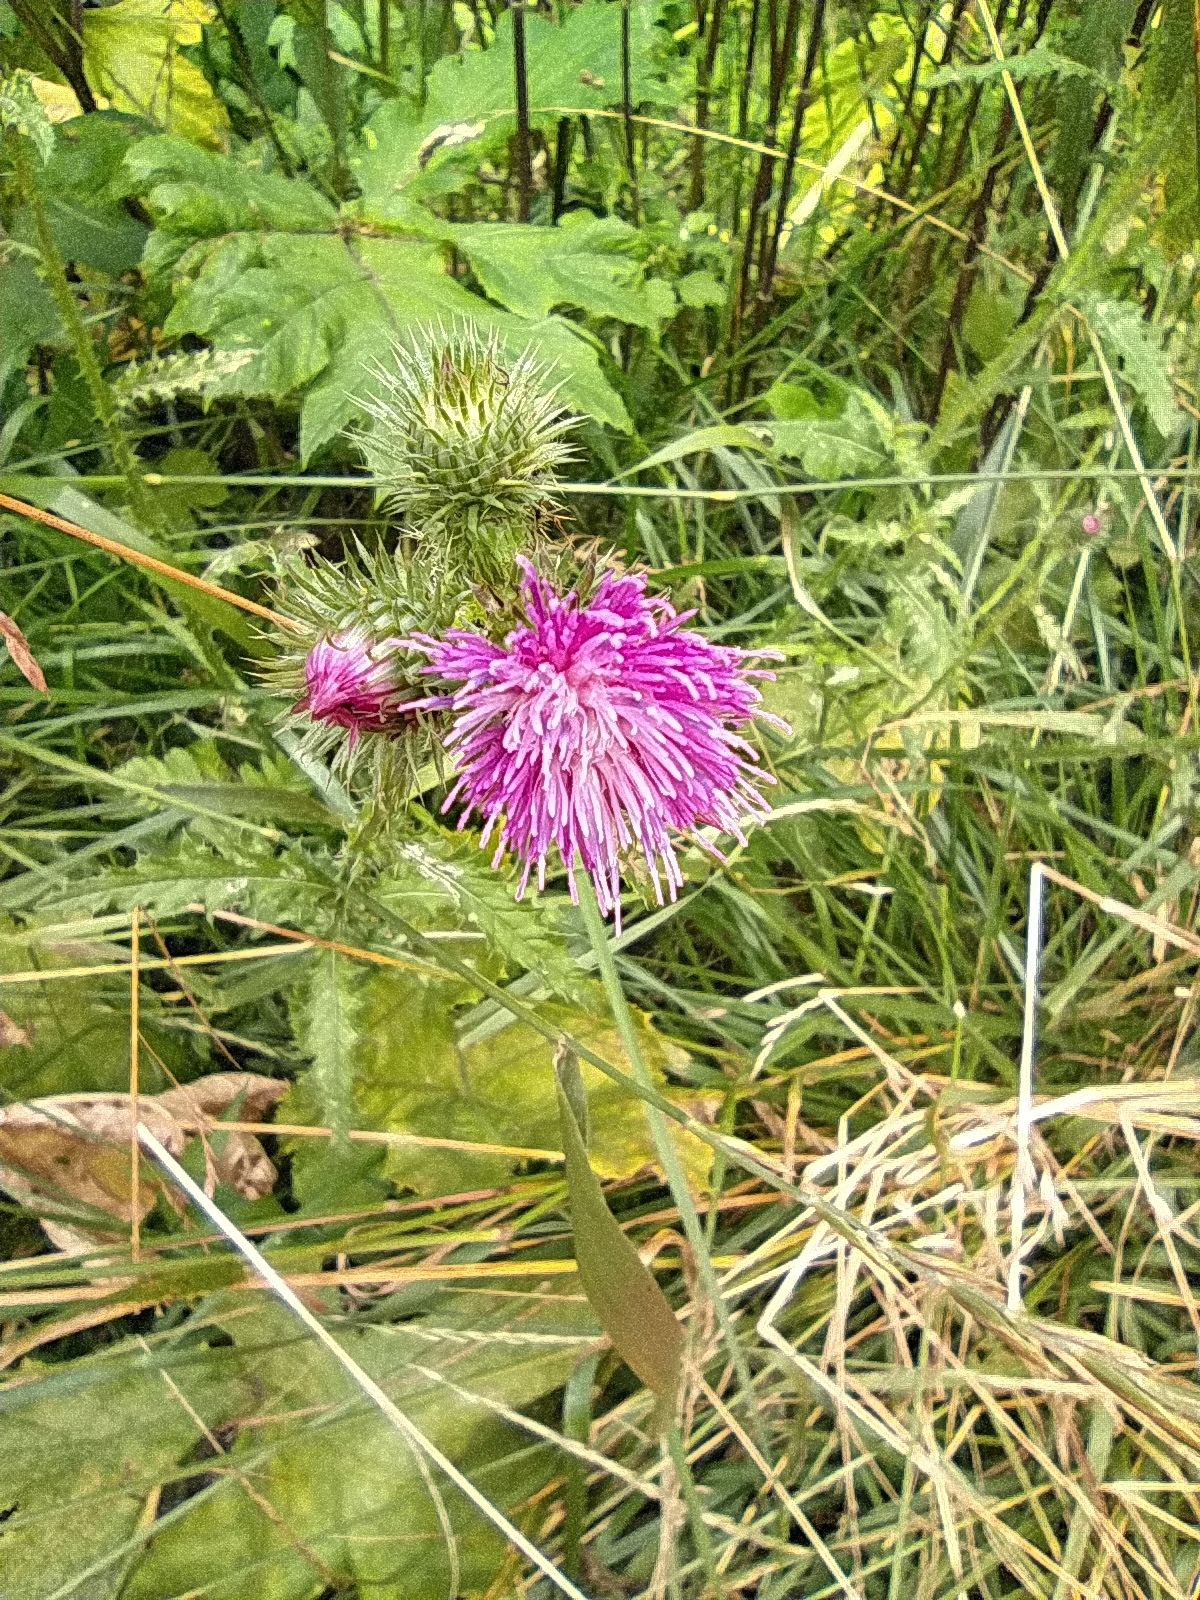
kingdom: Plantae
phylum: Tracheophyta
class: Magnoliopsida
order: Asterales
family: Asteraceae
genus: Carduus
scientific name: Carduus crispus
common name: Welted thistle
